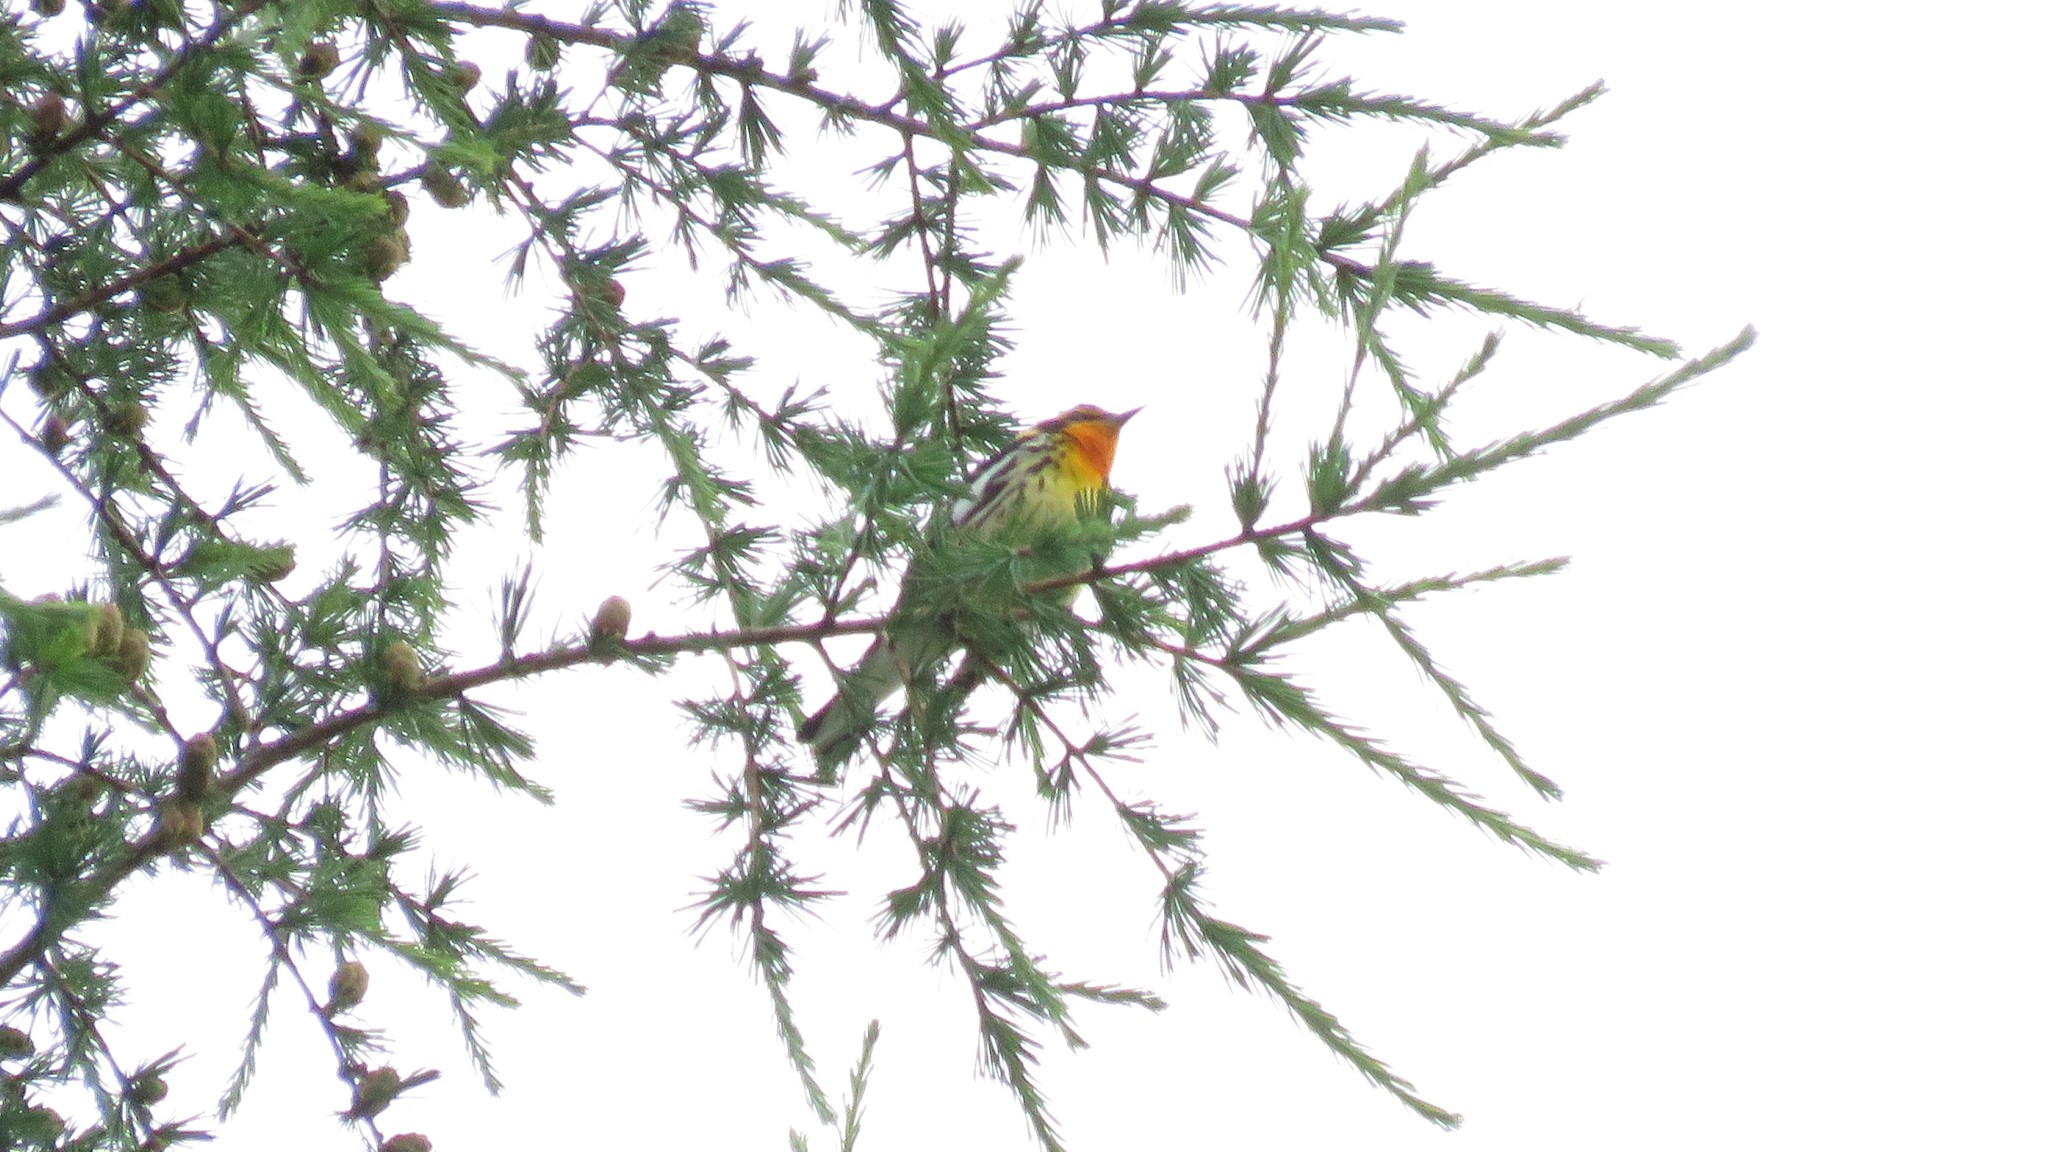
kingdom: Animalia
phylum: Chordata
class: Aves
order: Passeriformes
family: Parulidae
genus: Setophaga
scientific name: Setophaga fusca
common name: Blackburnian warbler
